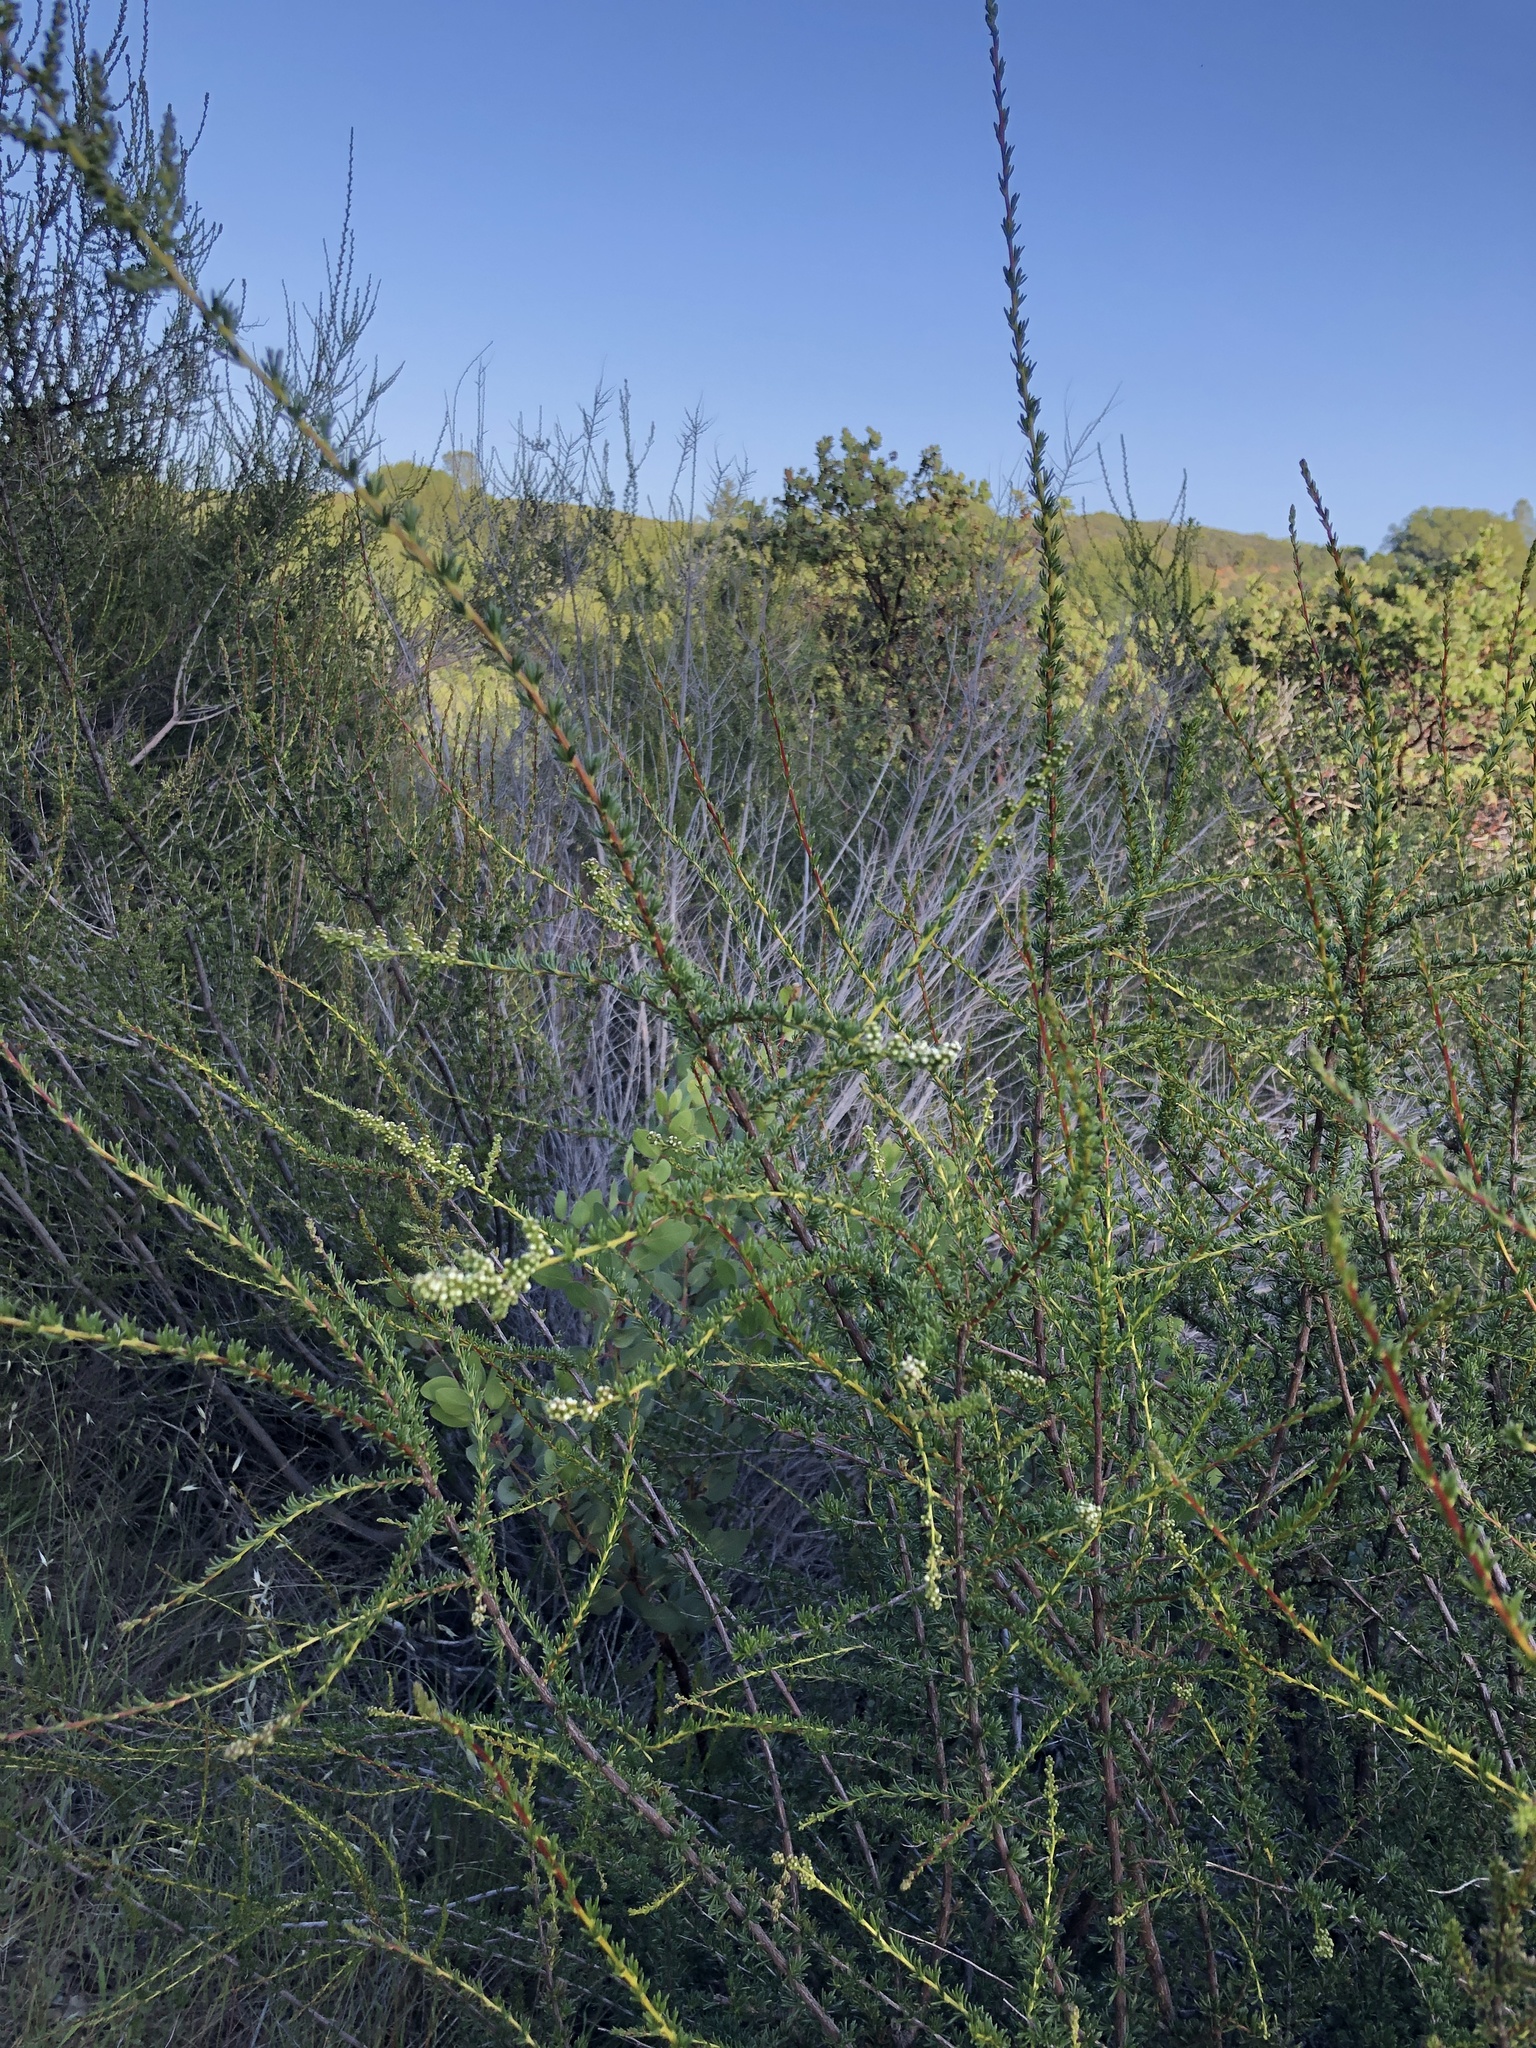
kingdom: Plantae
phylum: Tracheophyta
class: Magnoliopsida
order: Rosales
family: Rosaceae
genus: Adenostoma
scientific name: Adenostoma fasciculatum
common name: Chamise
